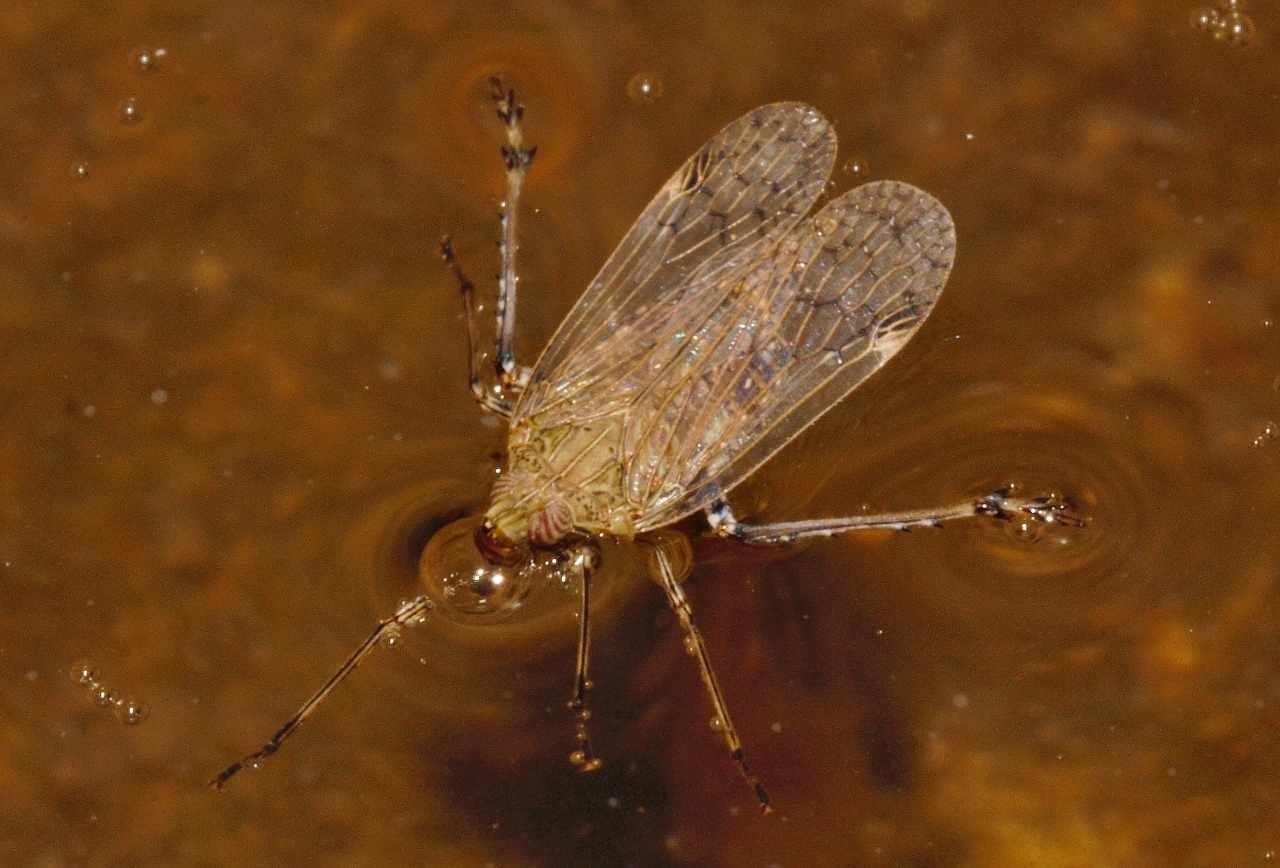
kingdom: Animalia
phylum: Arthropoda
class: Insecta
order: Hemiptera
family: Dictyopharidae
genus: Philotheria
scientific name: Philotheria natalensis
